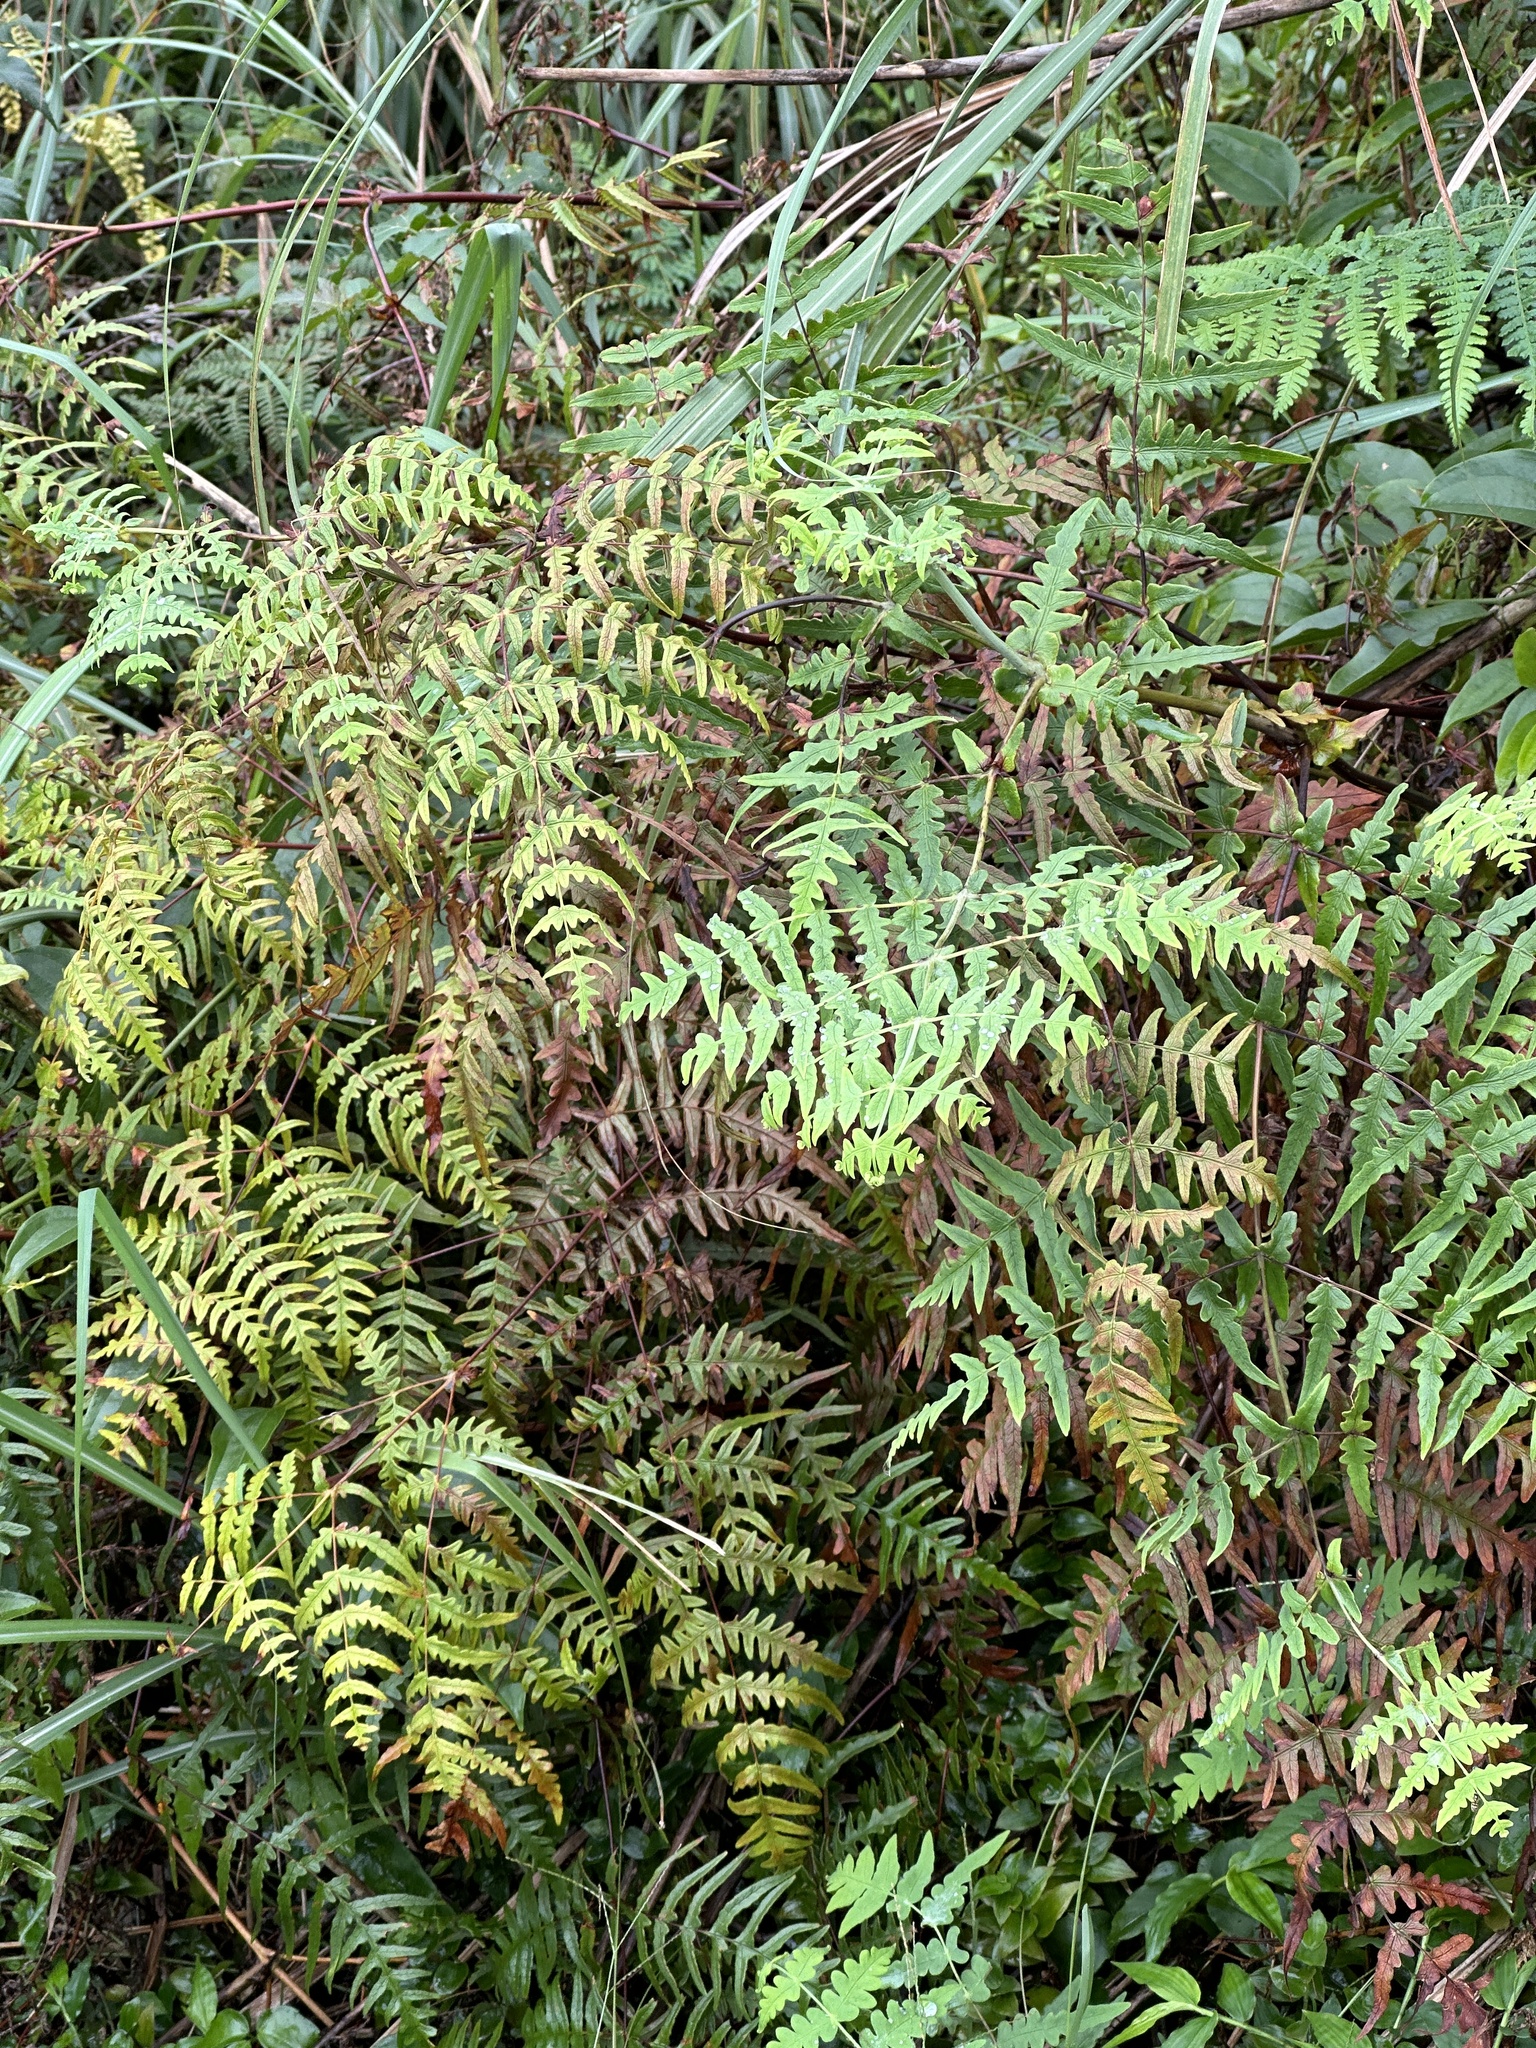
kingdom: Plantae
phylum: Tracheophyta
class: Polypodiopsida
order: Polypodiales
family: Dennstaedtiaceae
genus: Histiopteris
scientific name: Histiopteris incisa
